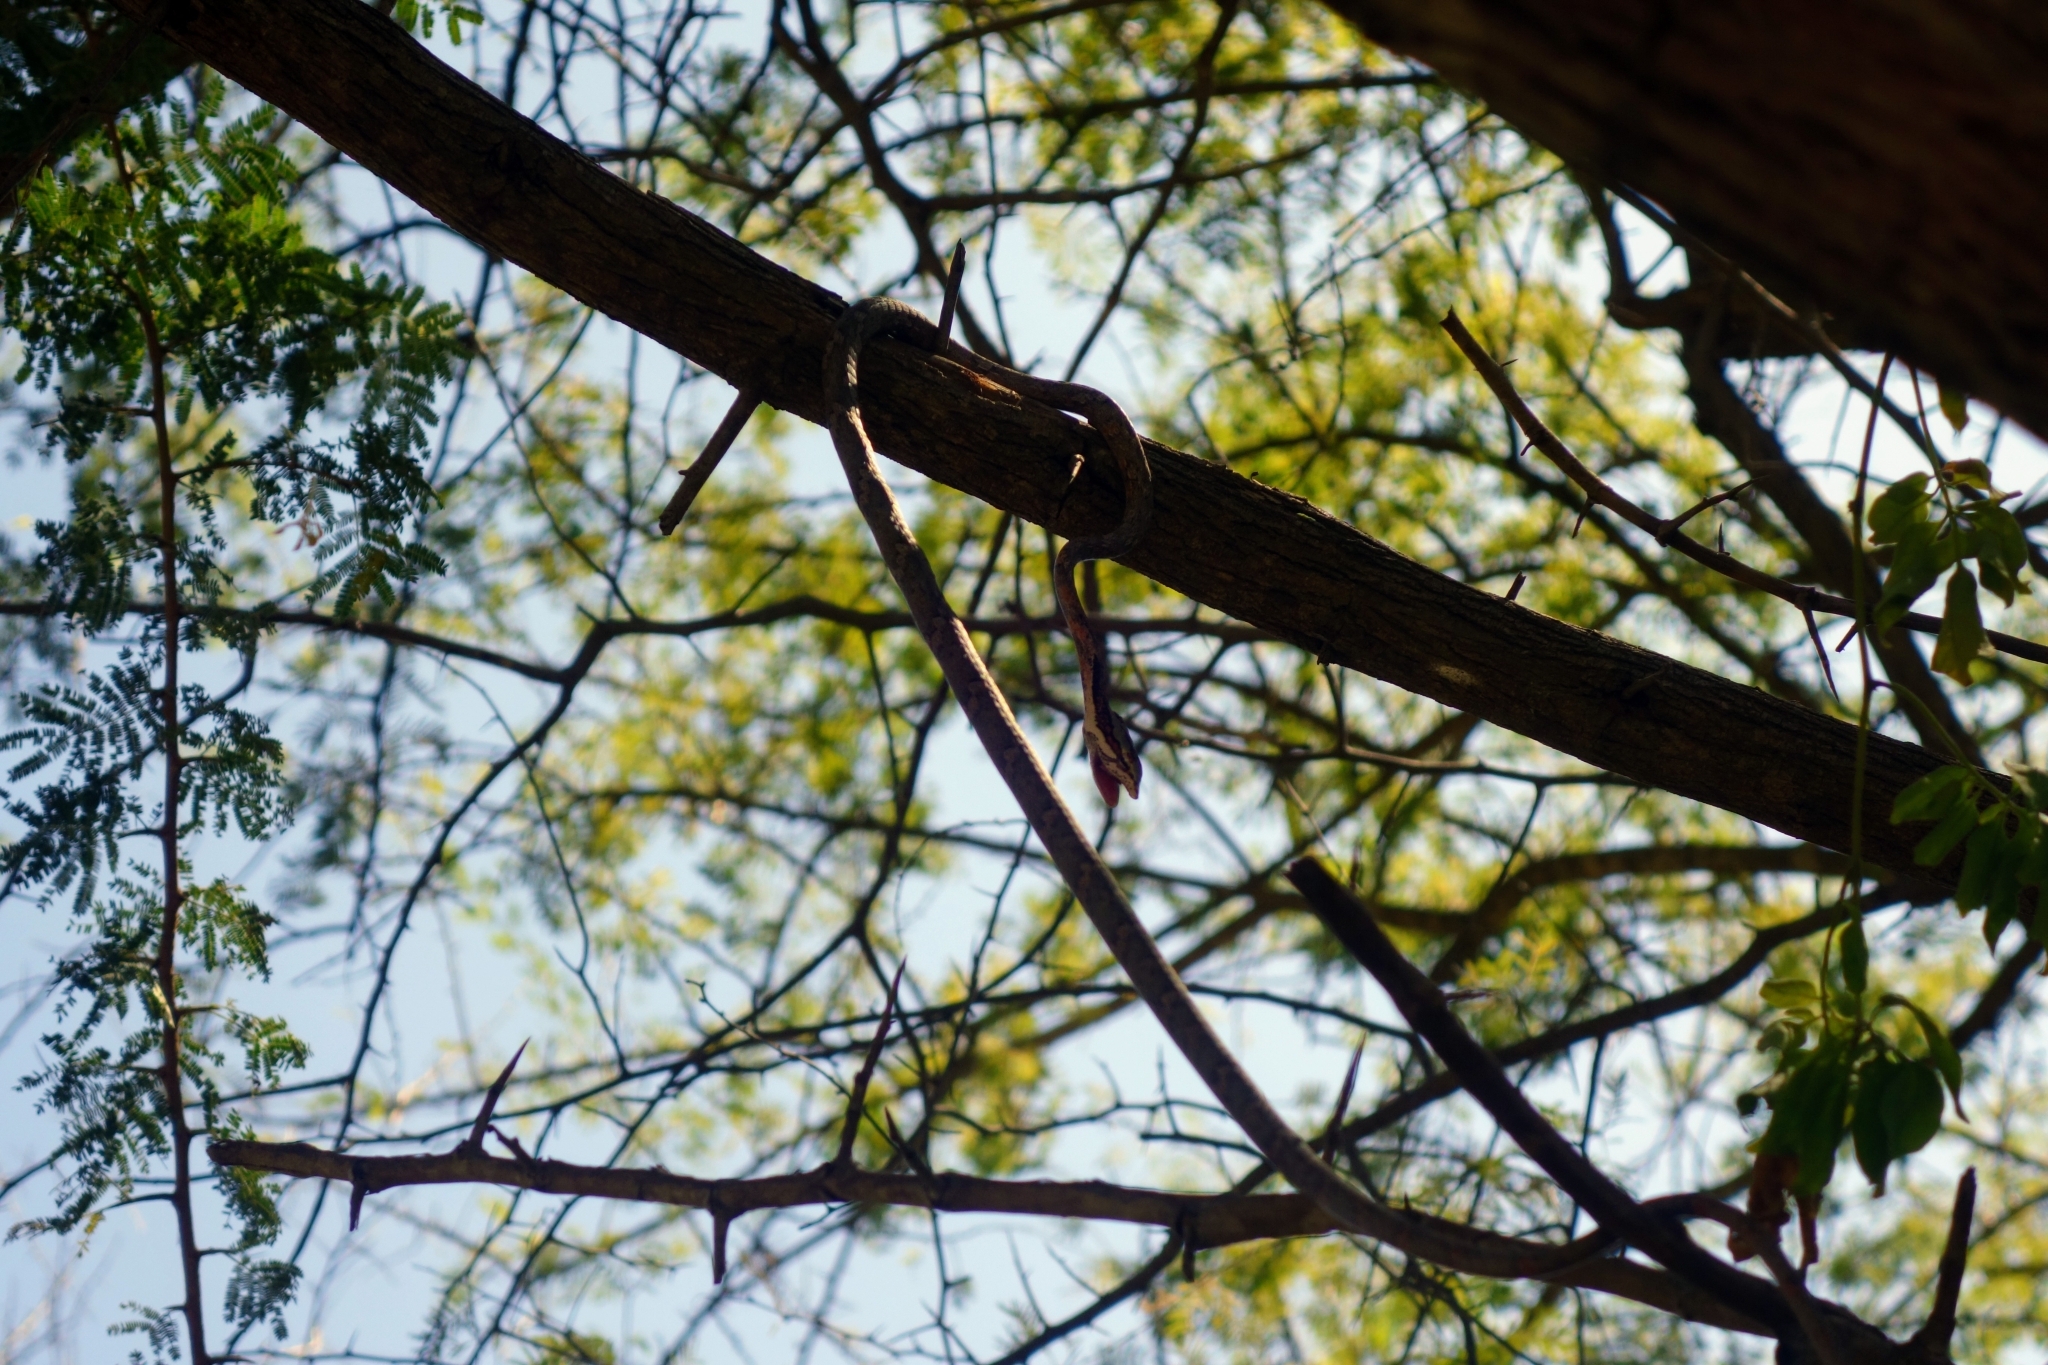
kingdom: Animalia
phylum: Chordata
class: Squamata
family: Colubridae
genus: Thelotornis
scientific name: Thelotornis capensis
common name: Savanna vine snake
